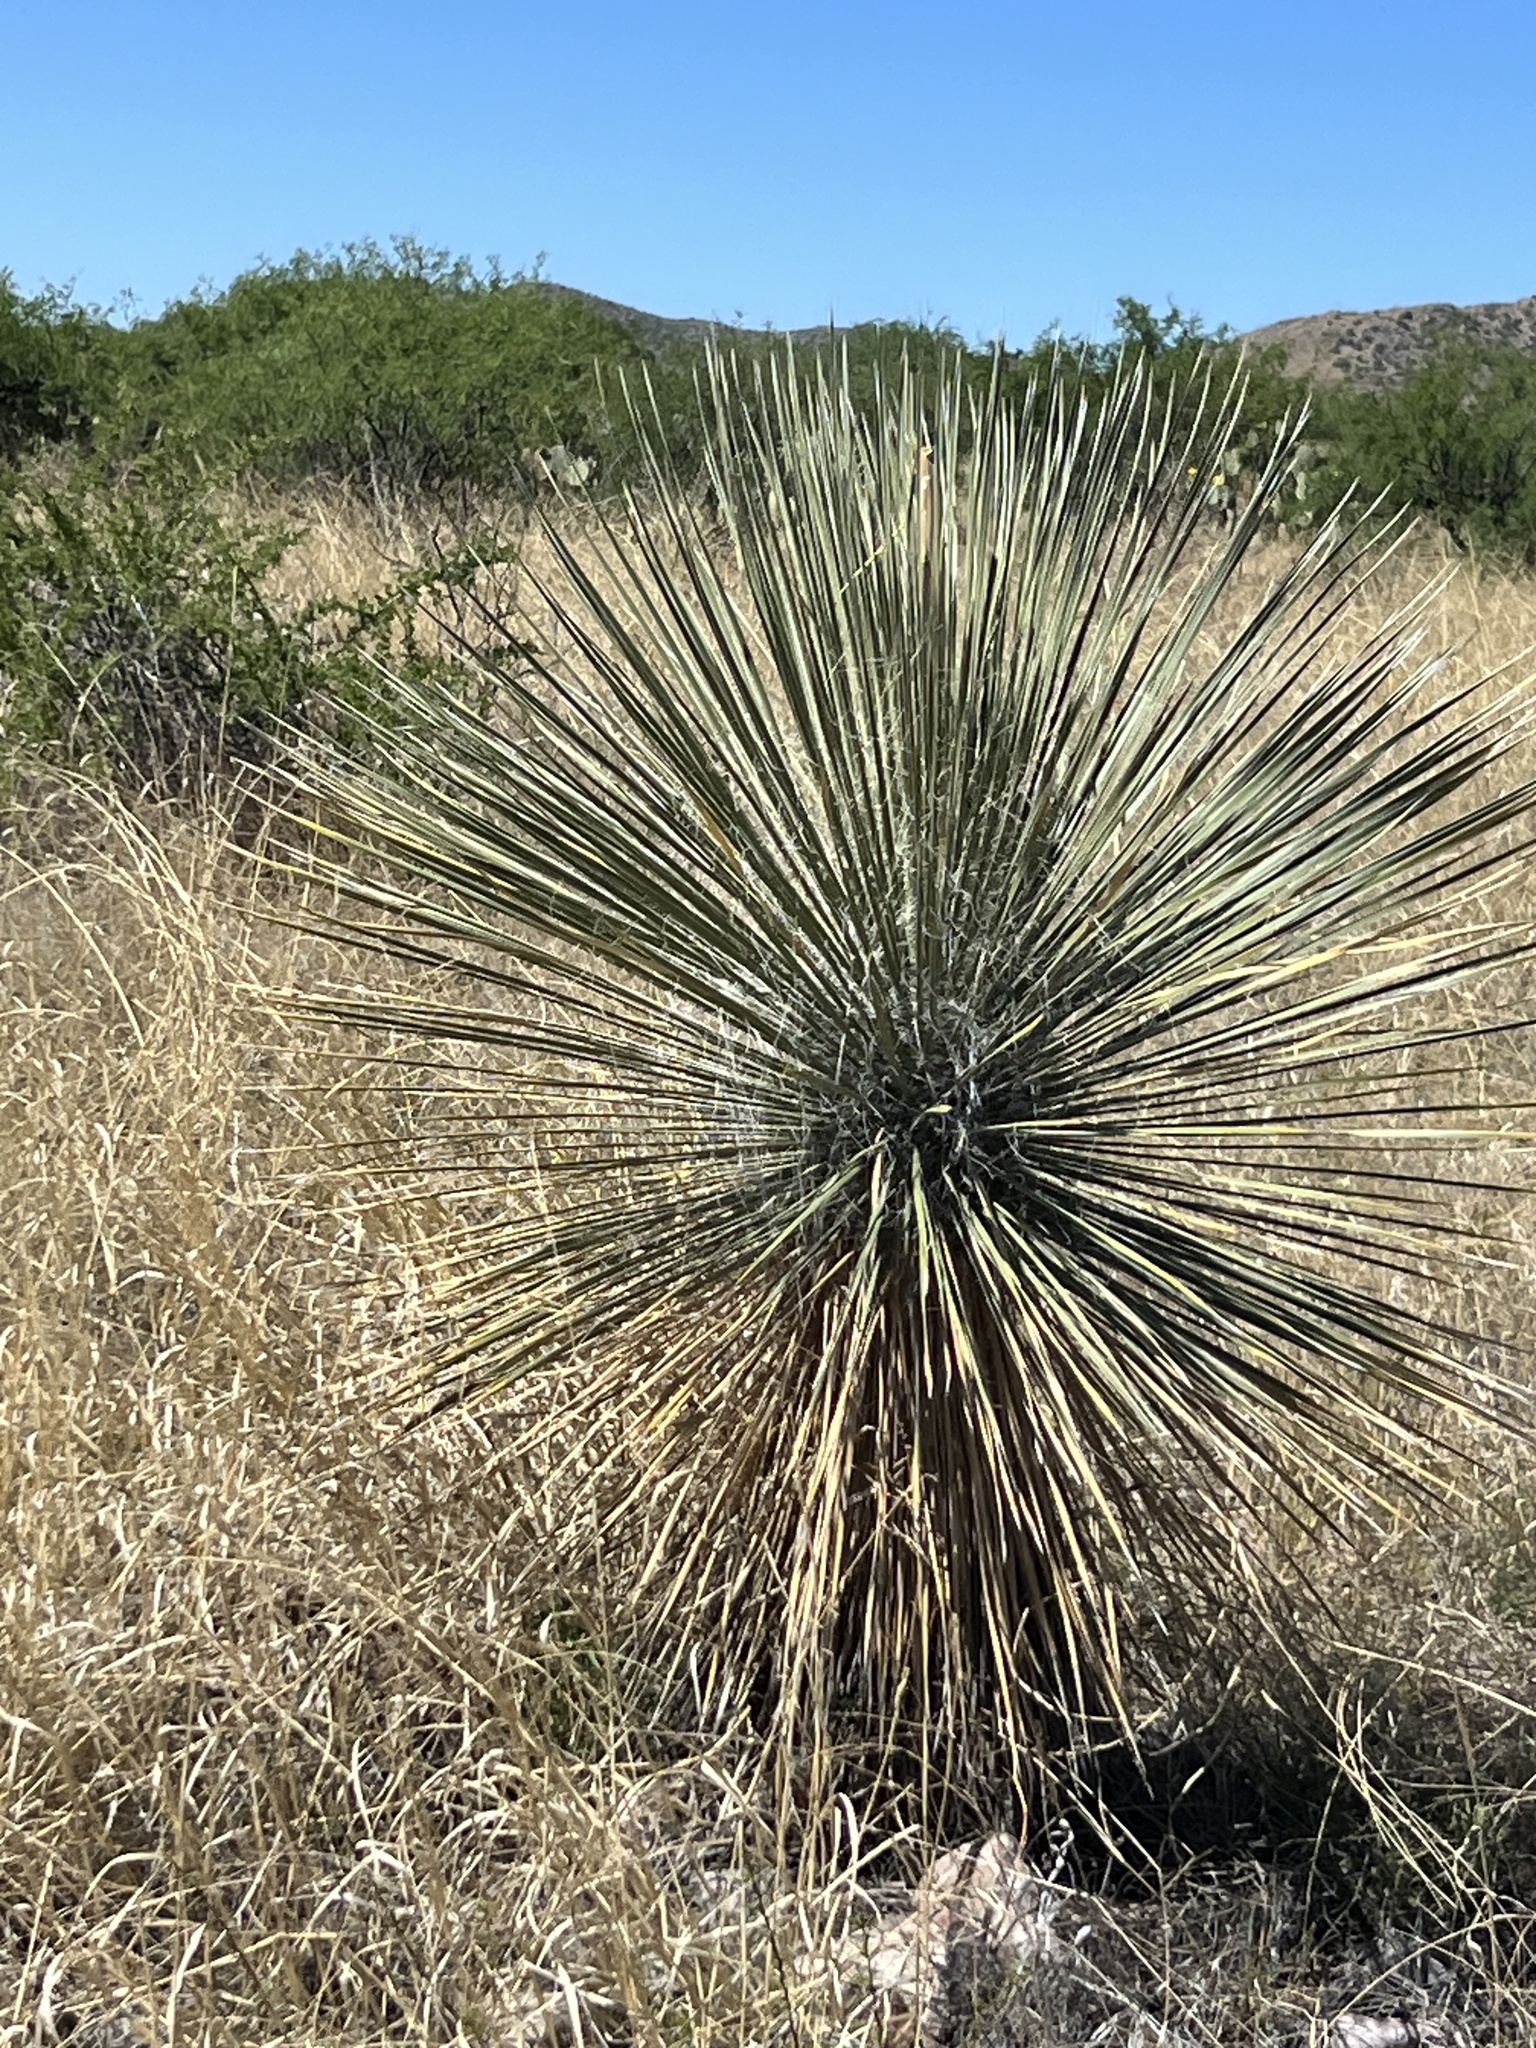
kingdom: Plantae
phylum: Tracheophyta
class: Liliopsida
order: Asparagales
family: Asparagaceae
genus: Yucca
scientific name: Yucca elata
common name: Palmella
